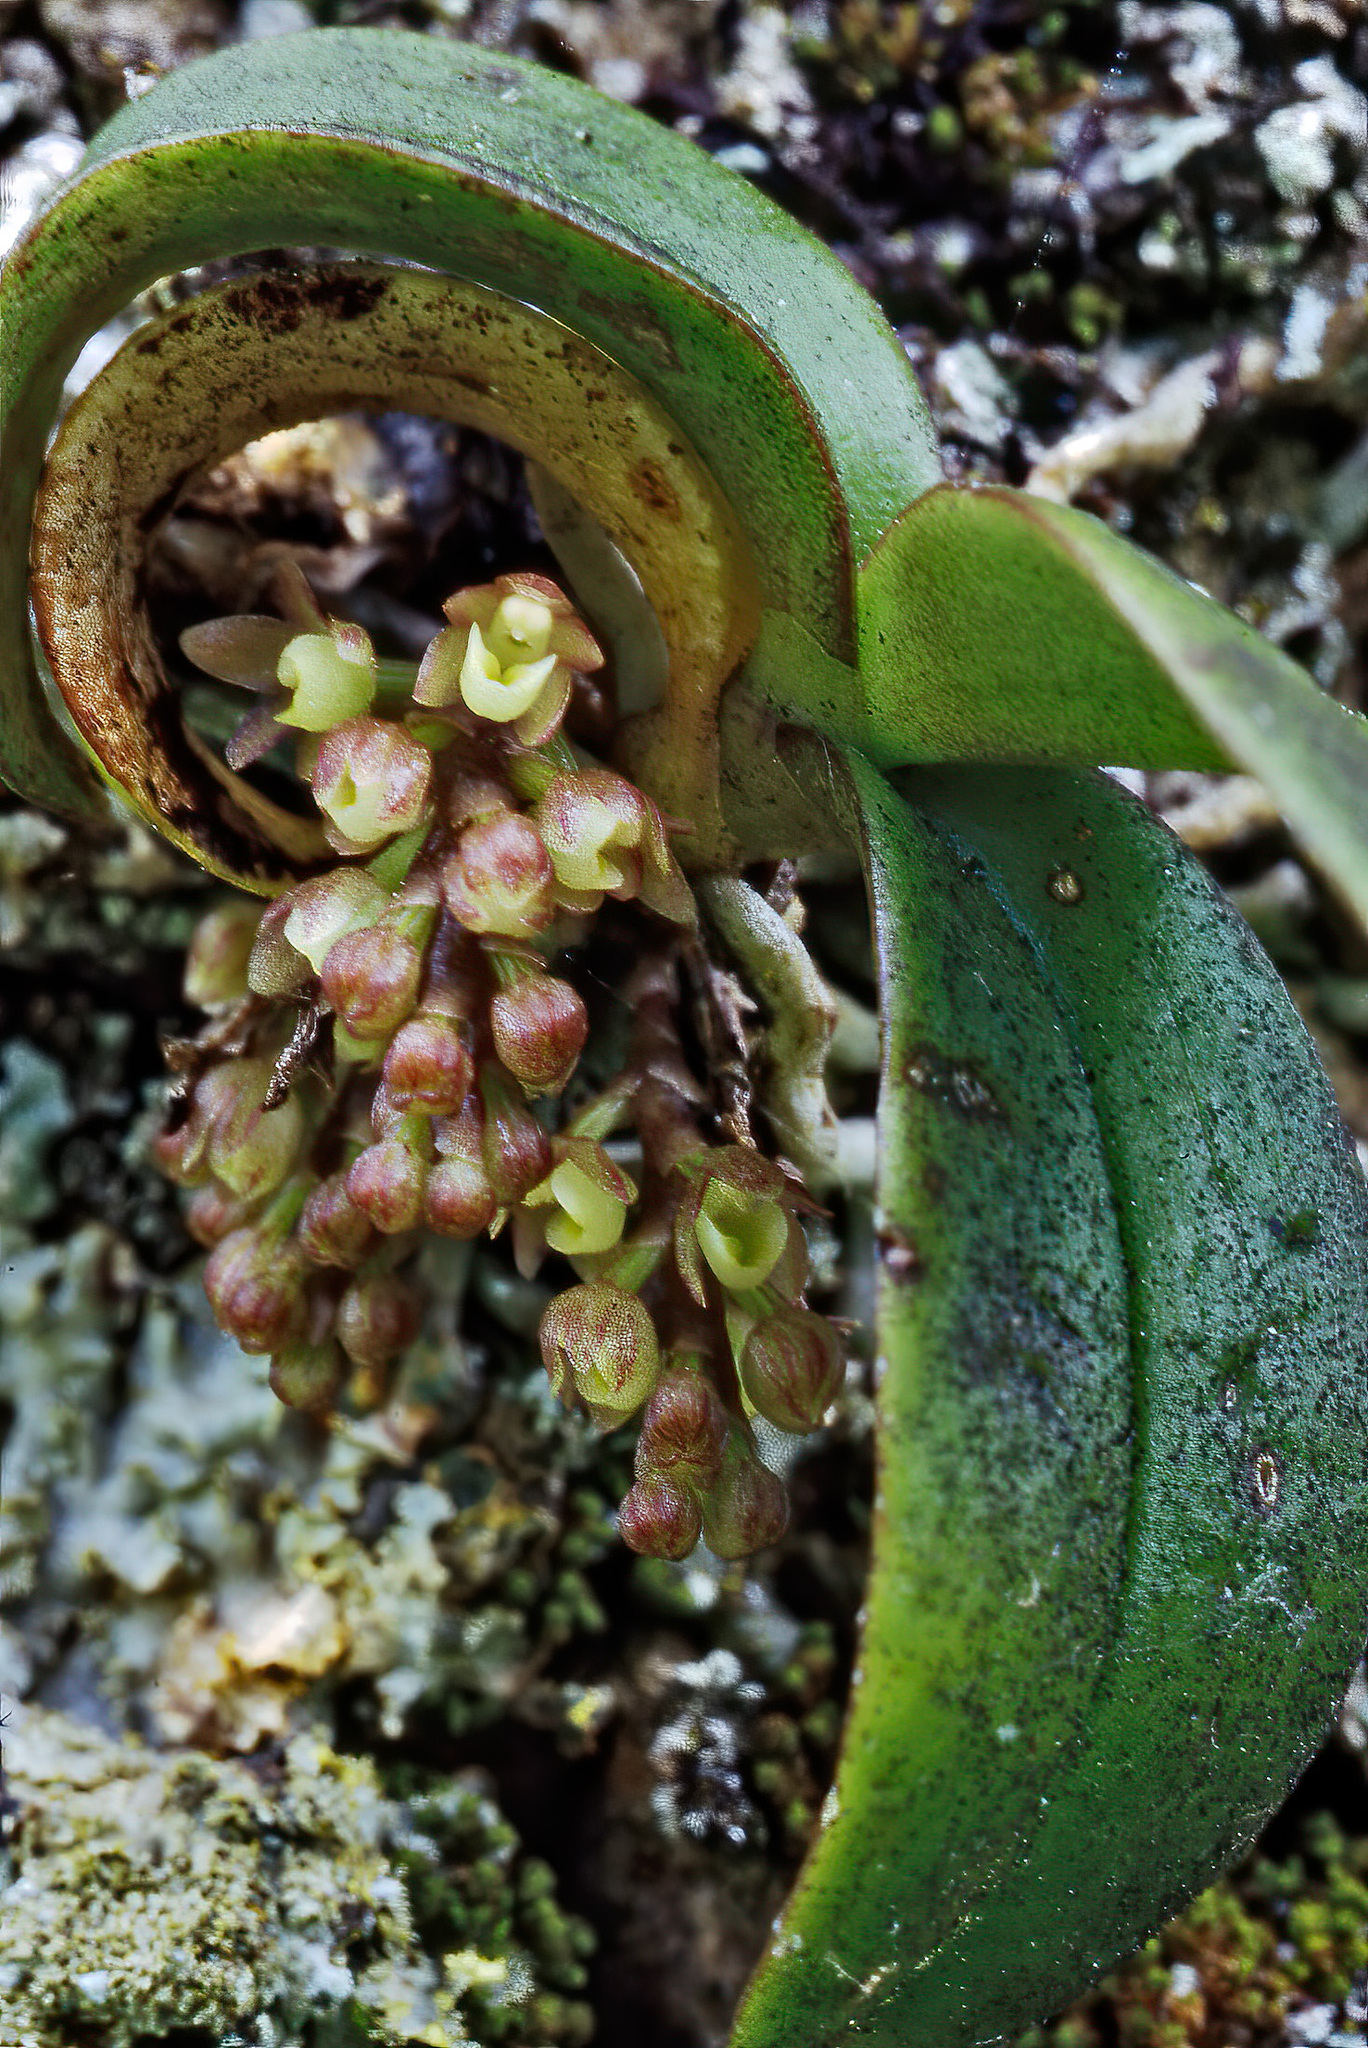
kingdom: Plantae
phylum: Tracheophyta
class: Liliopsida
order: Asparagales
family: Orchidaceae
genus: Drymoanthus
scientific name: Drymoanthus adversus
